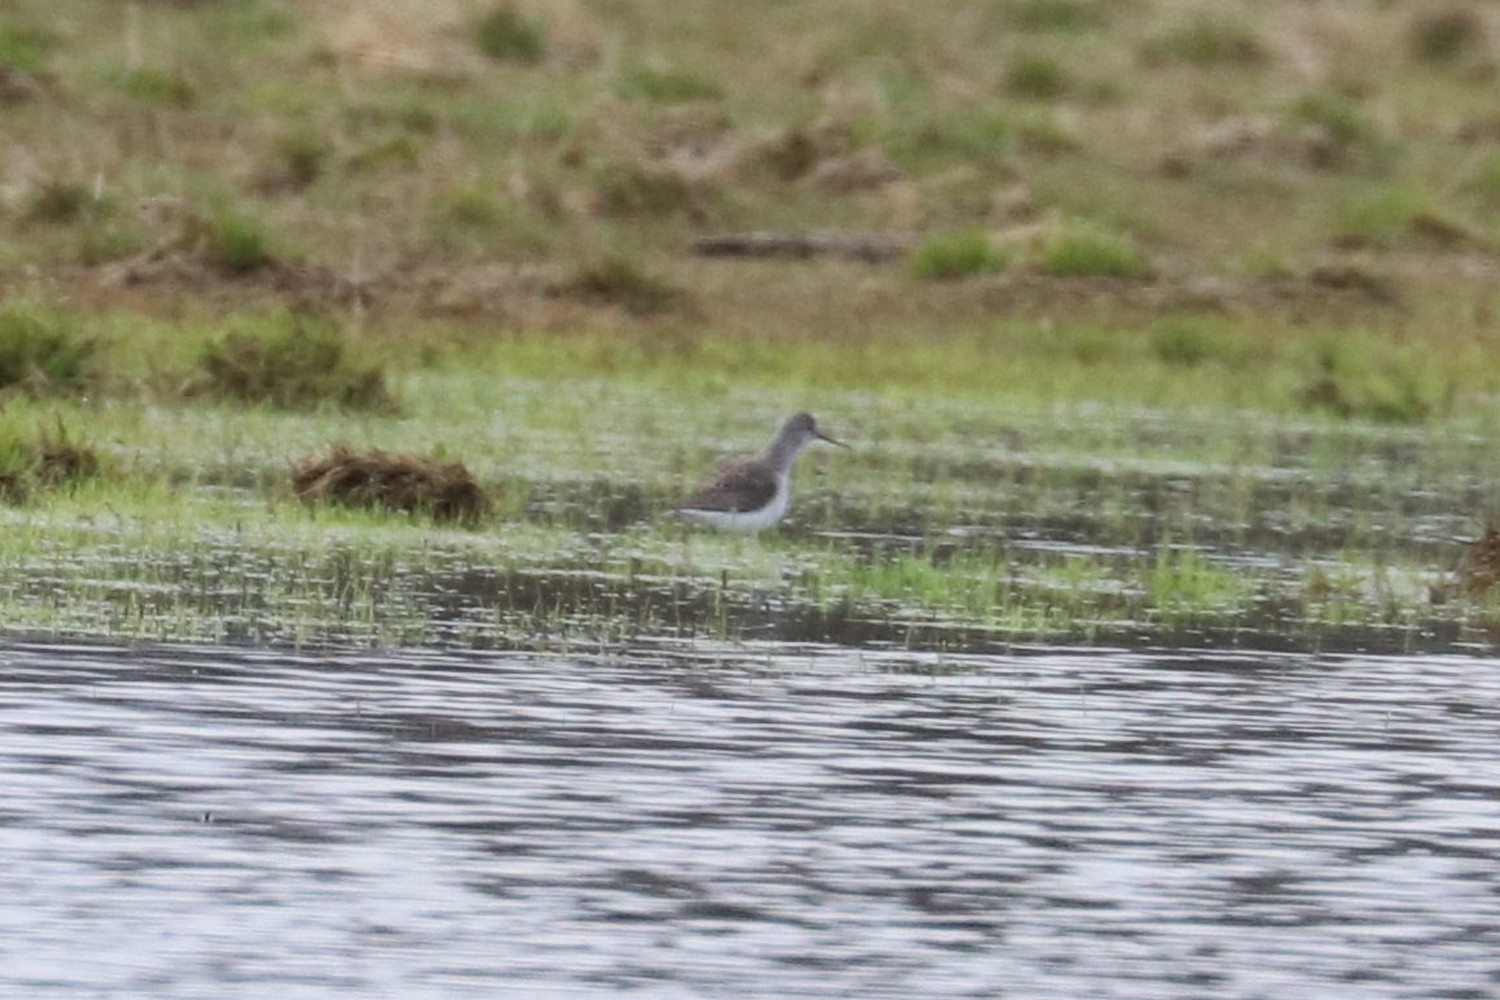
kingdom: Animalia
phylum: Chordata
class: Aves
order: Charadriiformes
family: Scolopacidae
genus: Tringa
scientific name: Tringa stagnatilis
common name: Marsh sandpiper
